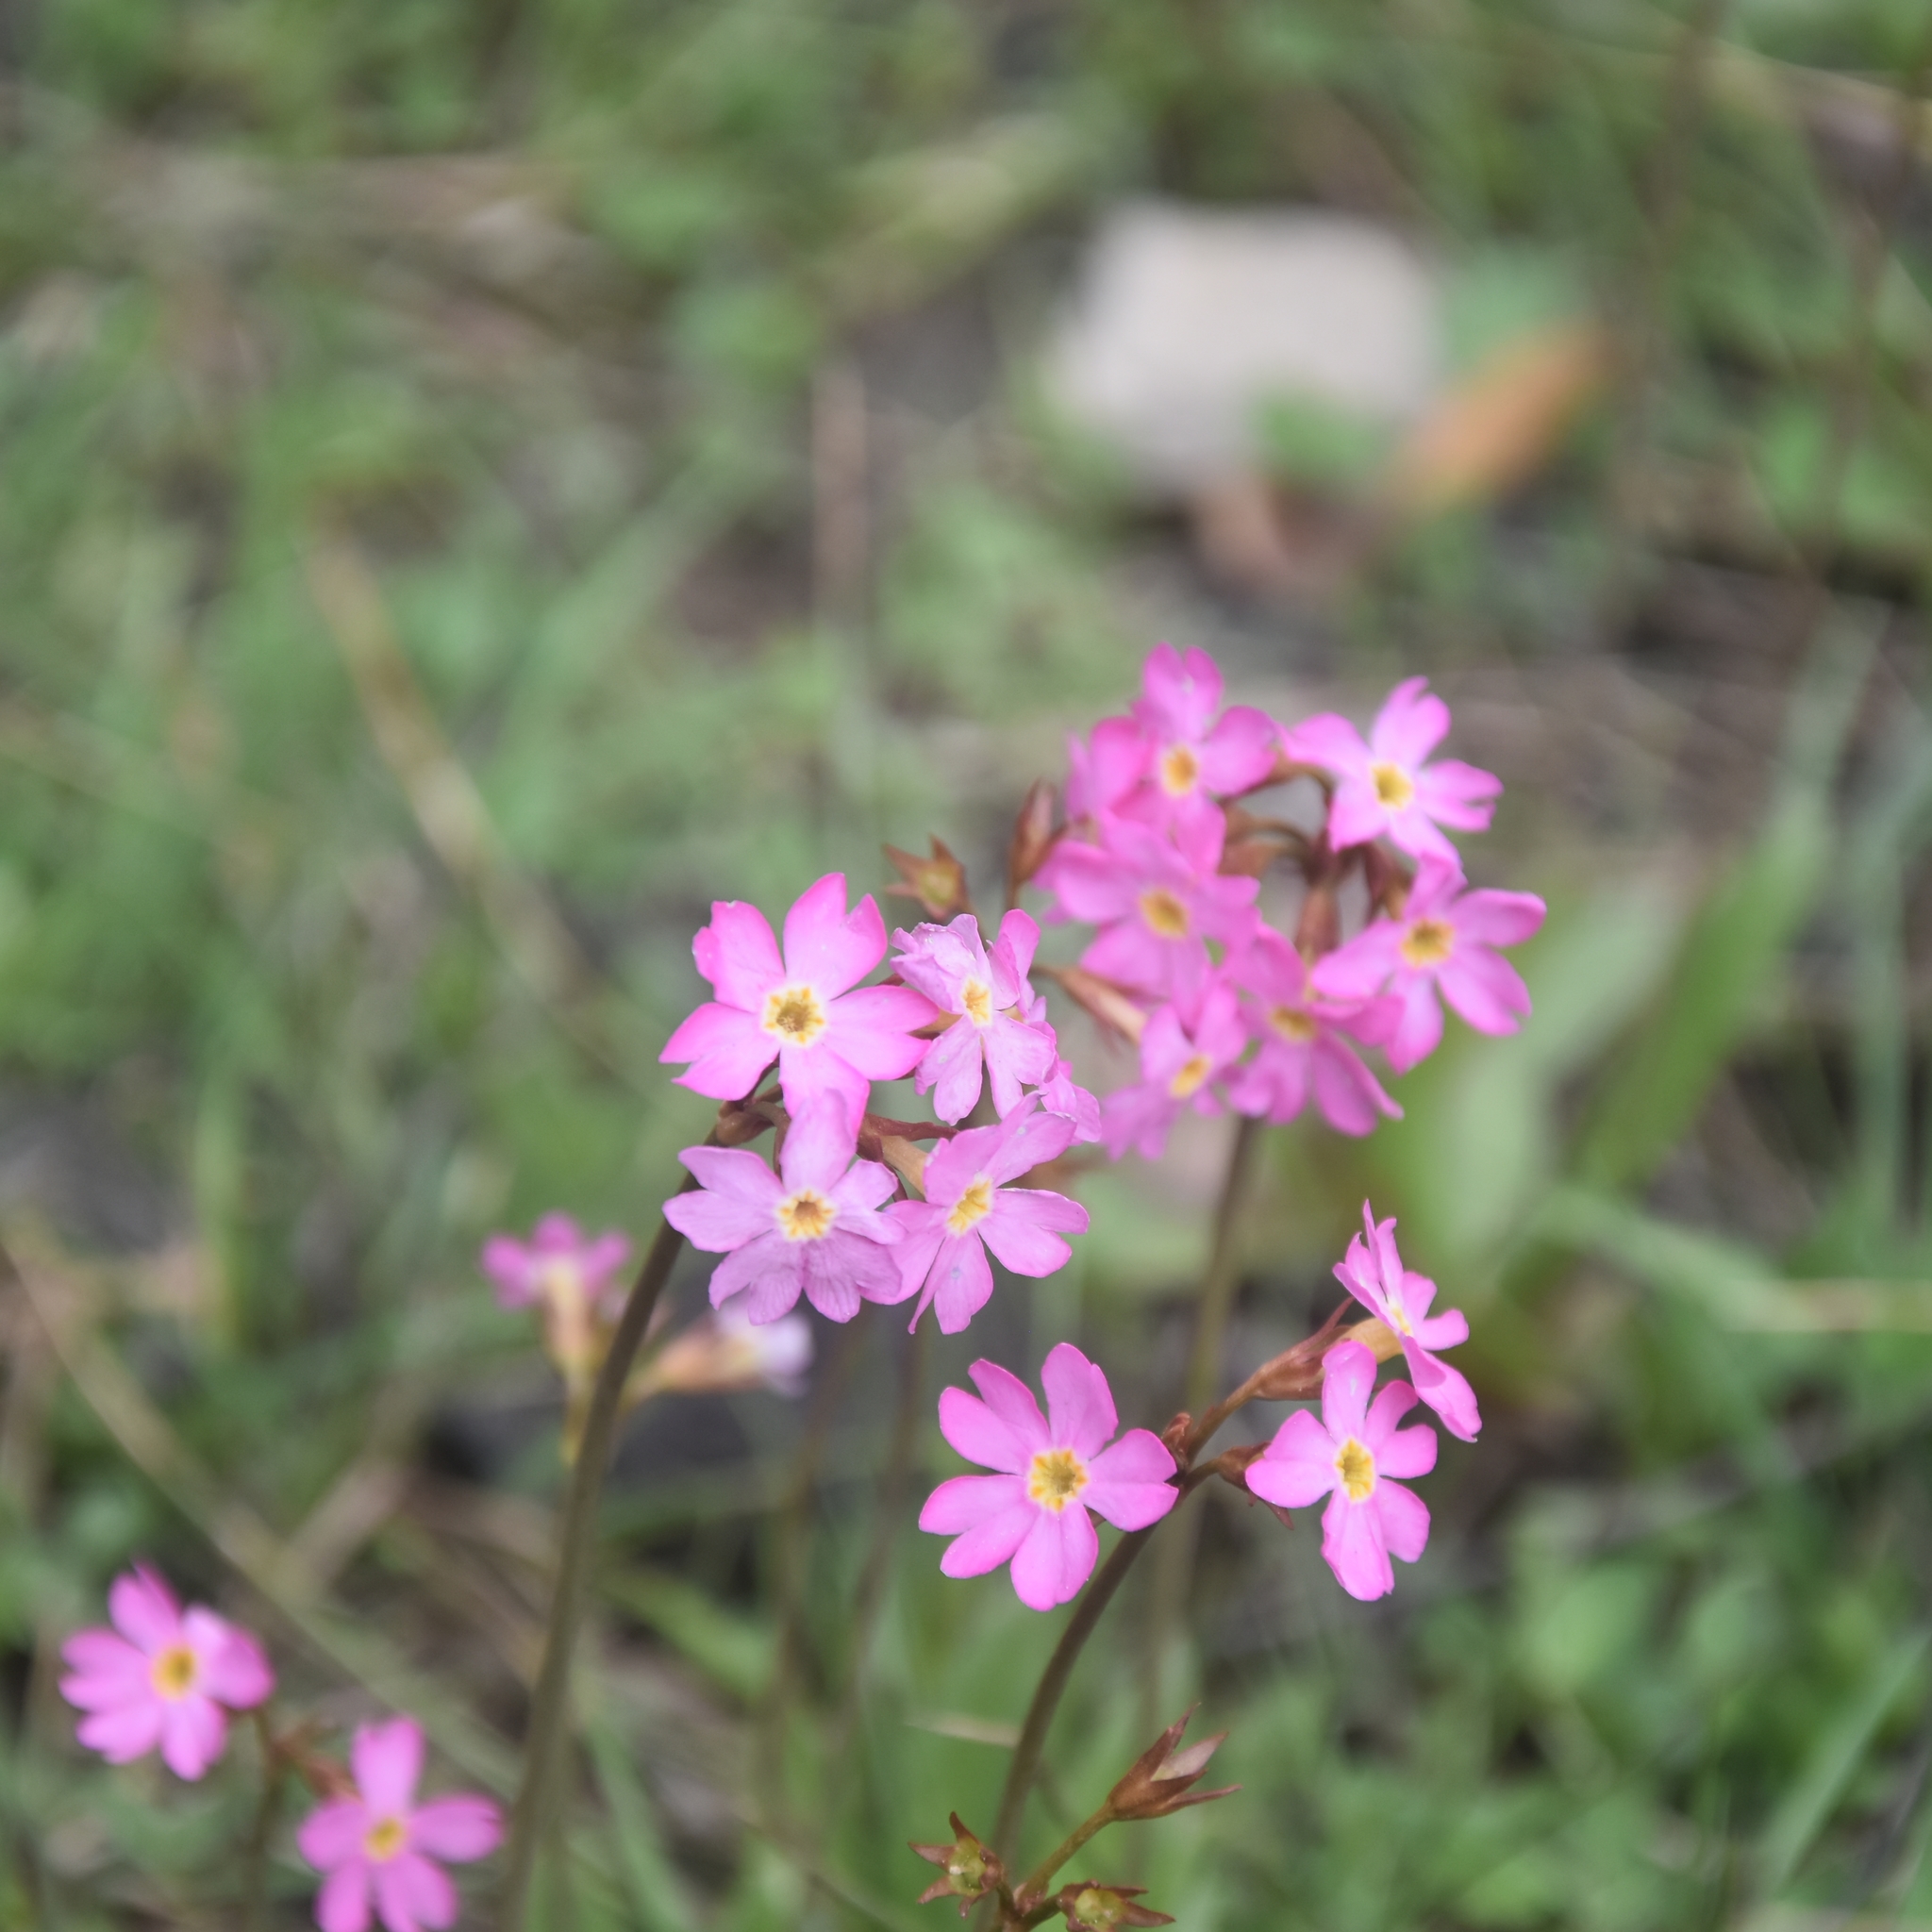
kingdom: Plantae
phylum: Tracheophyta
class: Magnoliopsida
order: Ericales
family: Primulaceae
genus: Primula
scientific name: Primula rosea
